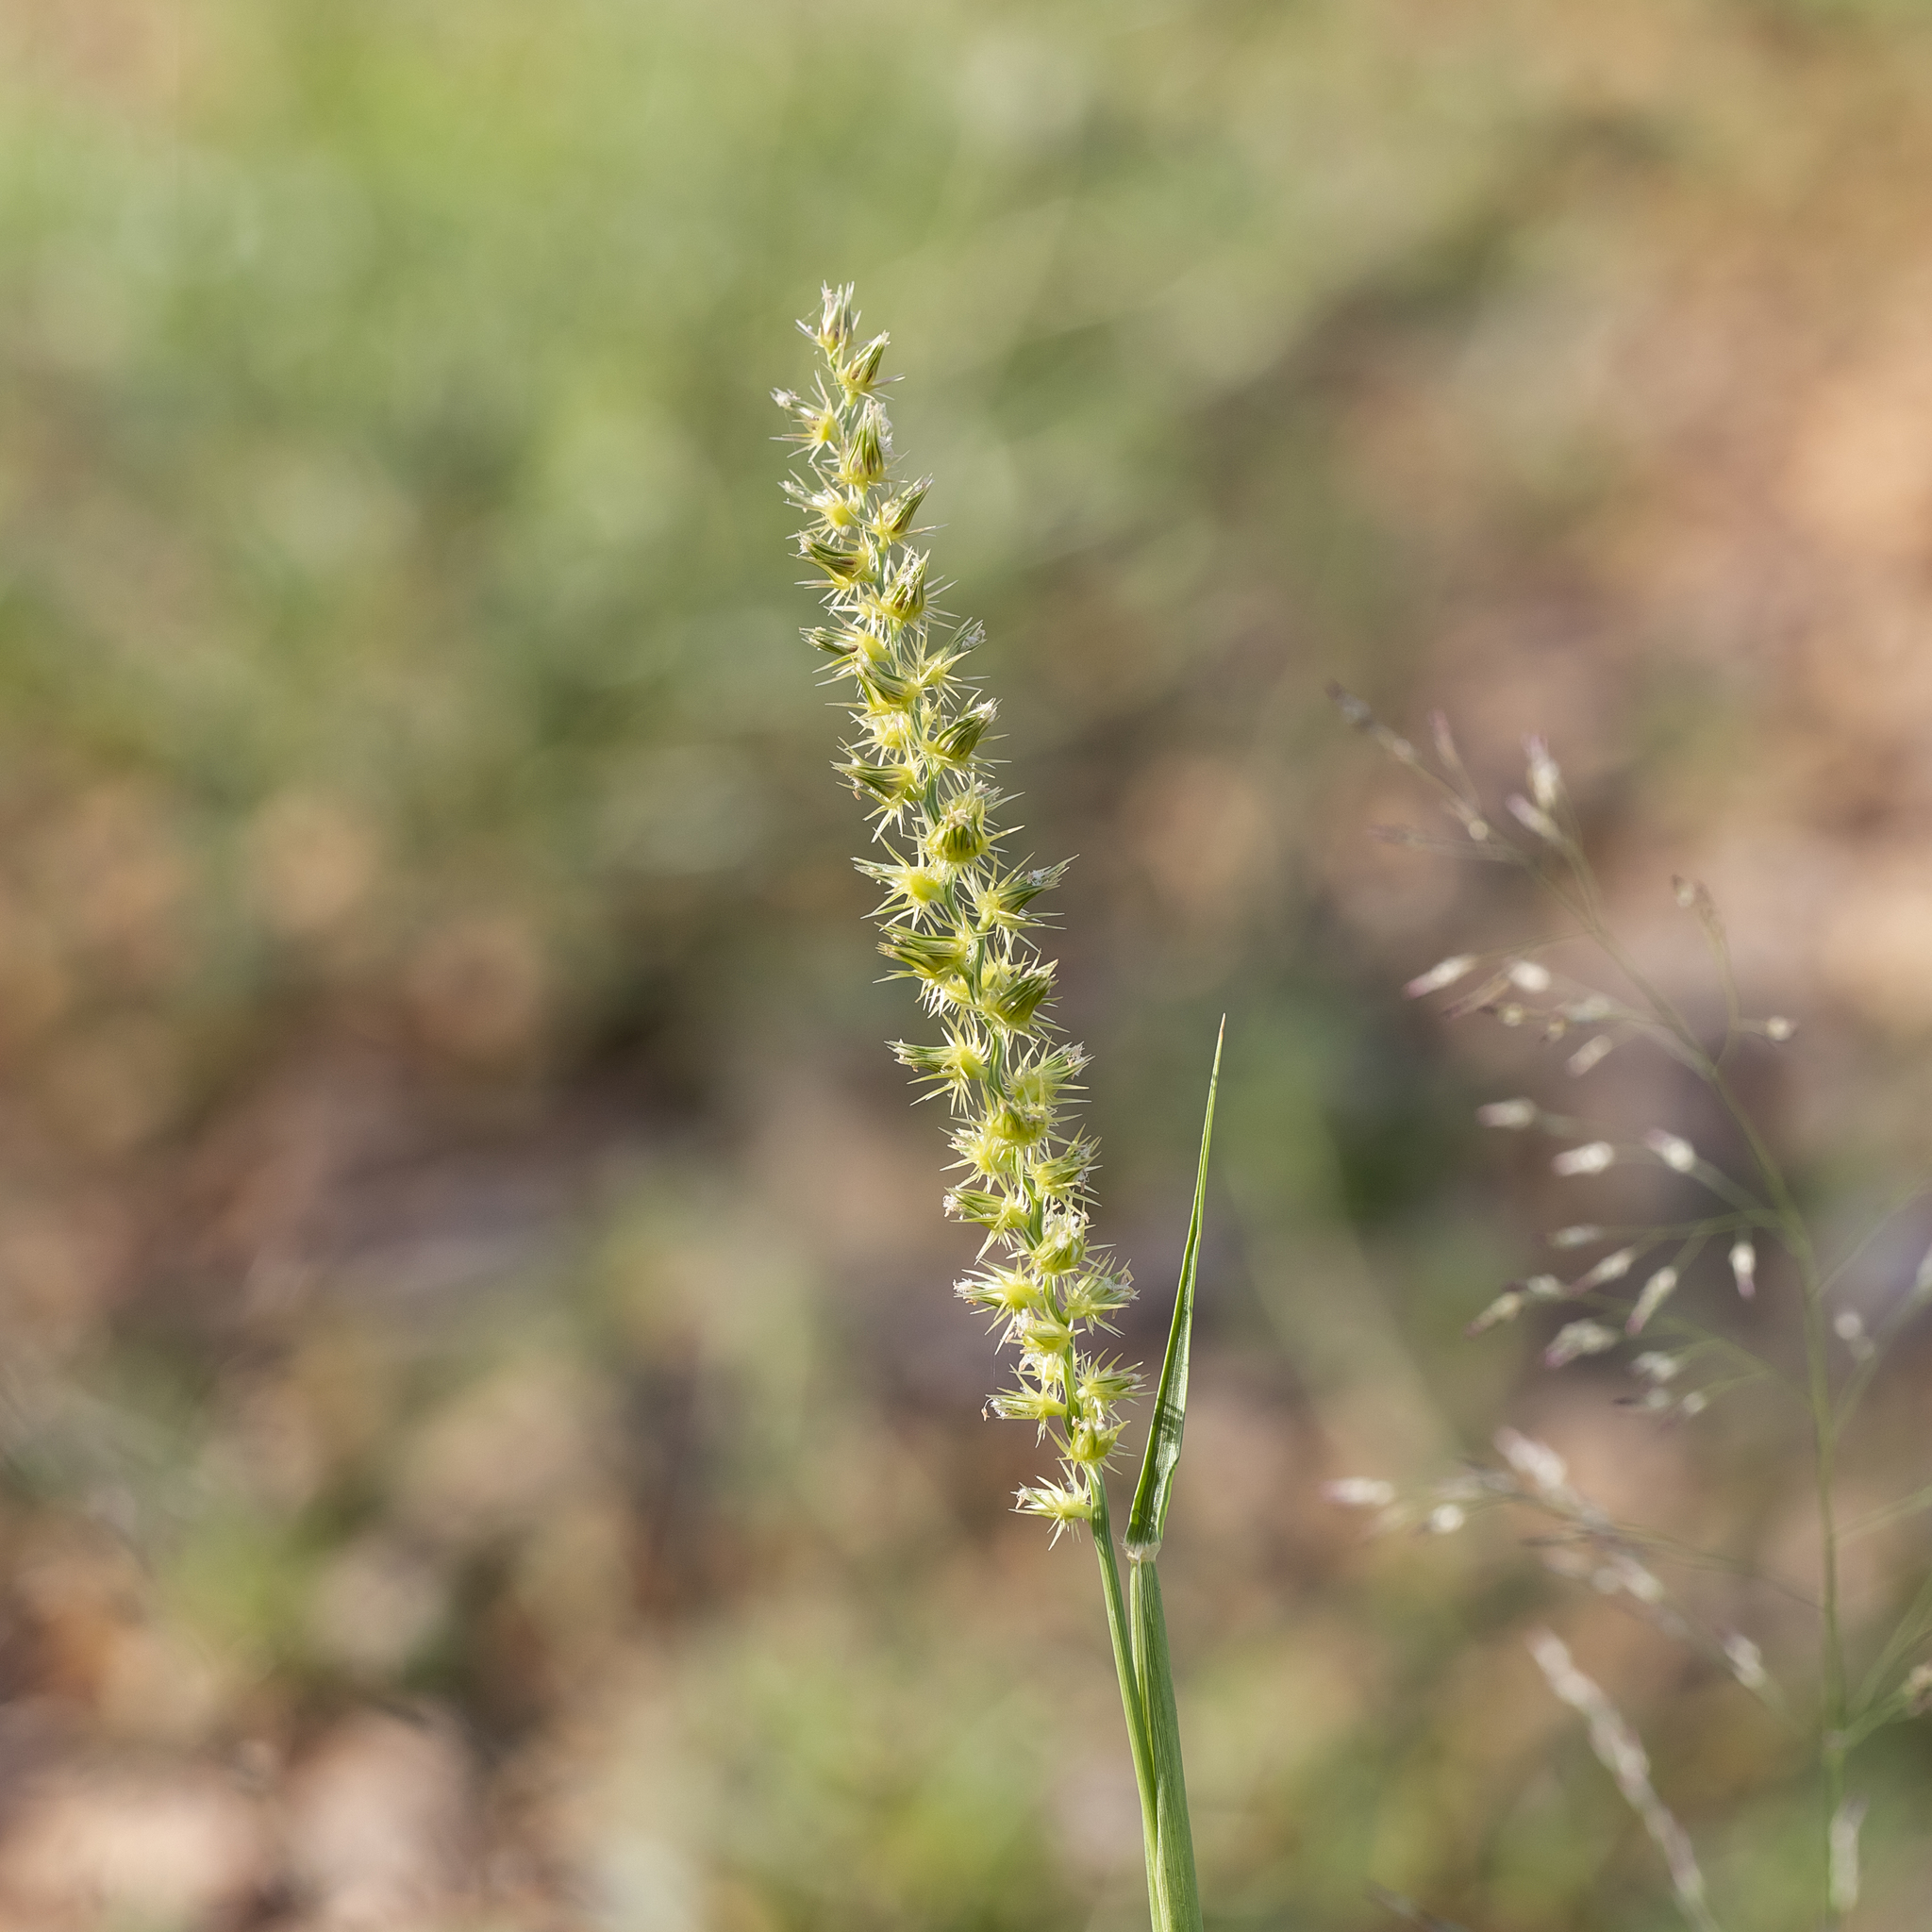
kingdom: Plantae
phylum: Tracheophyta
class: Liliopsida
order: Poales
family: Poaceae
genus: Cenchrus
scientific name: Cenchrus biflorus
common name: Indian sandbur
